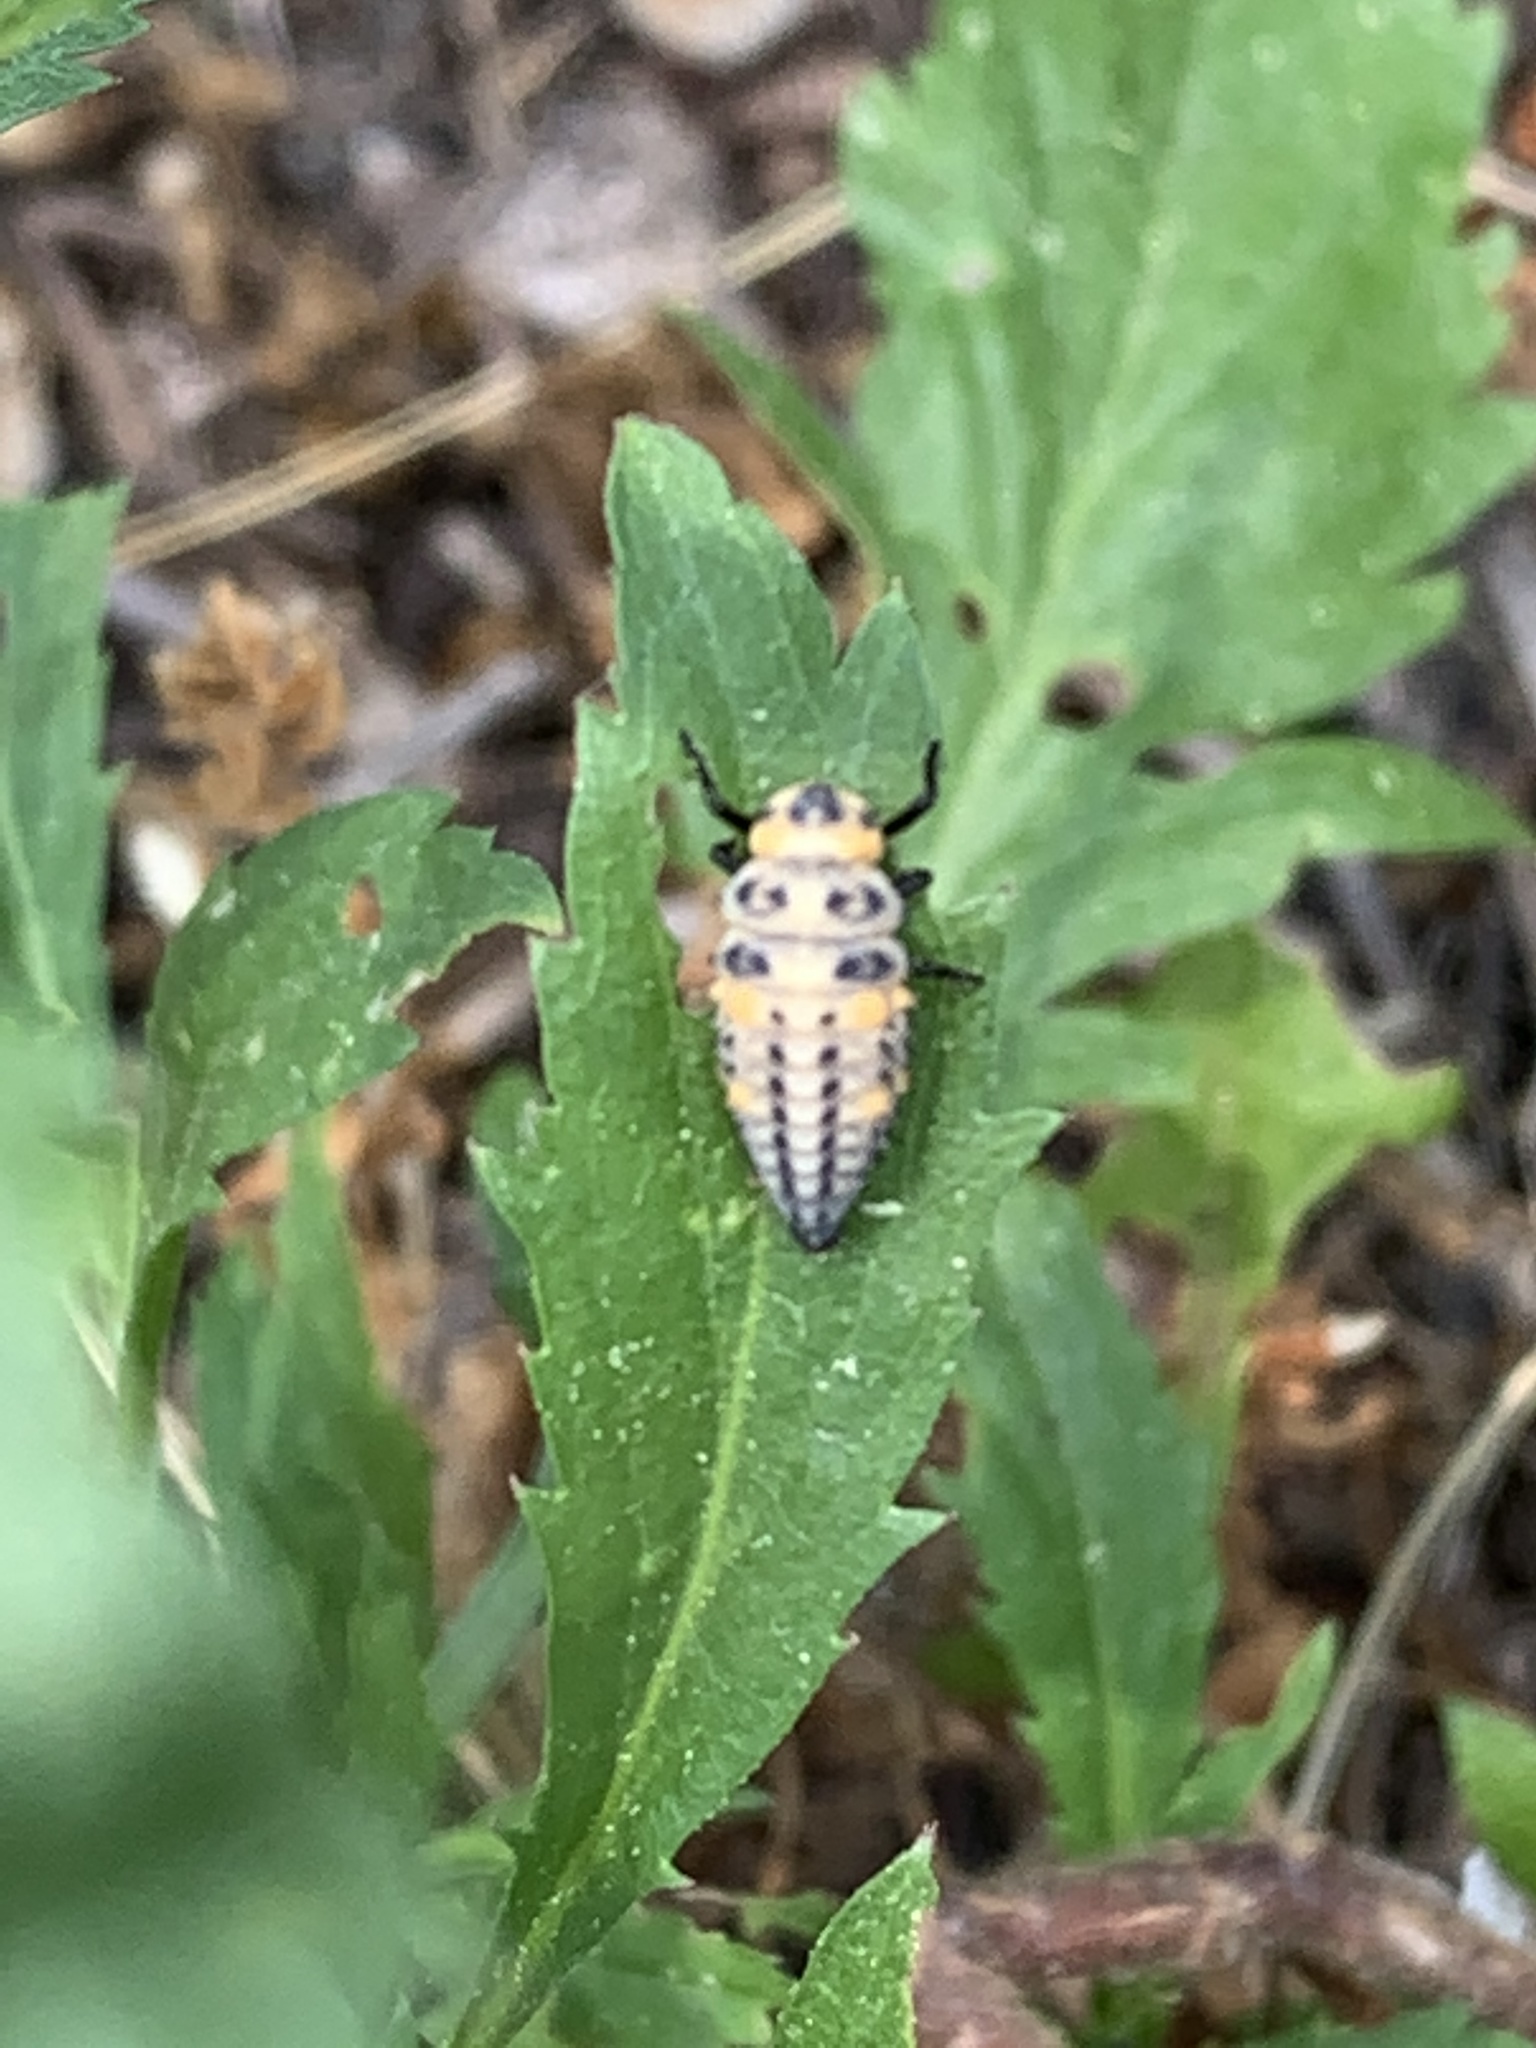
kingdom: Animalia
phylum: Arthropoda
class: Insecta
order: Coleoptera
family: Coccinellidae
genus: Coccinella
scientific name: Coccinella septempunctata
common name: Sevenspotted lady beetle
